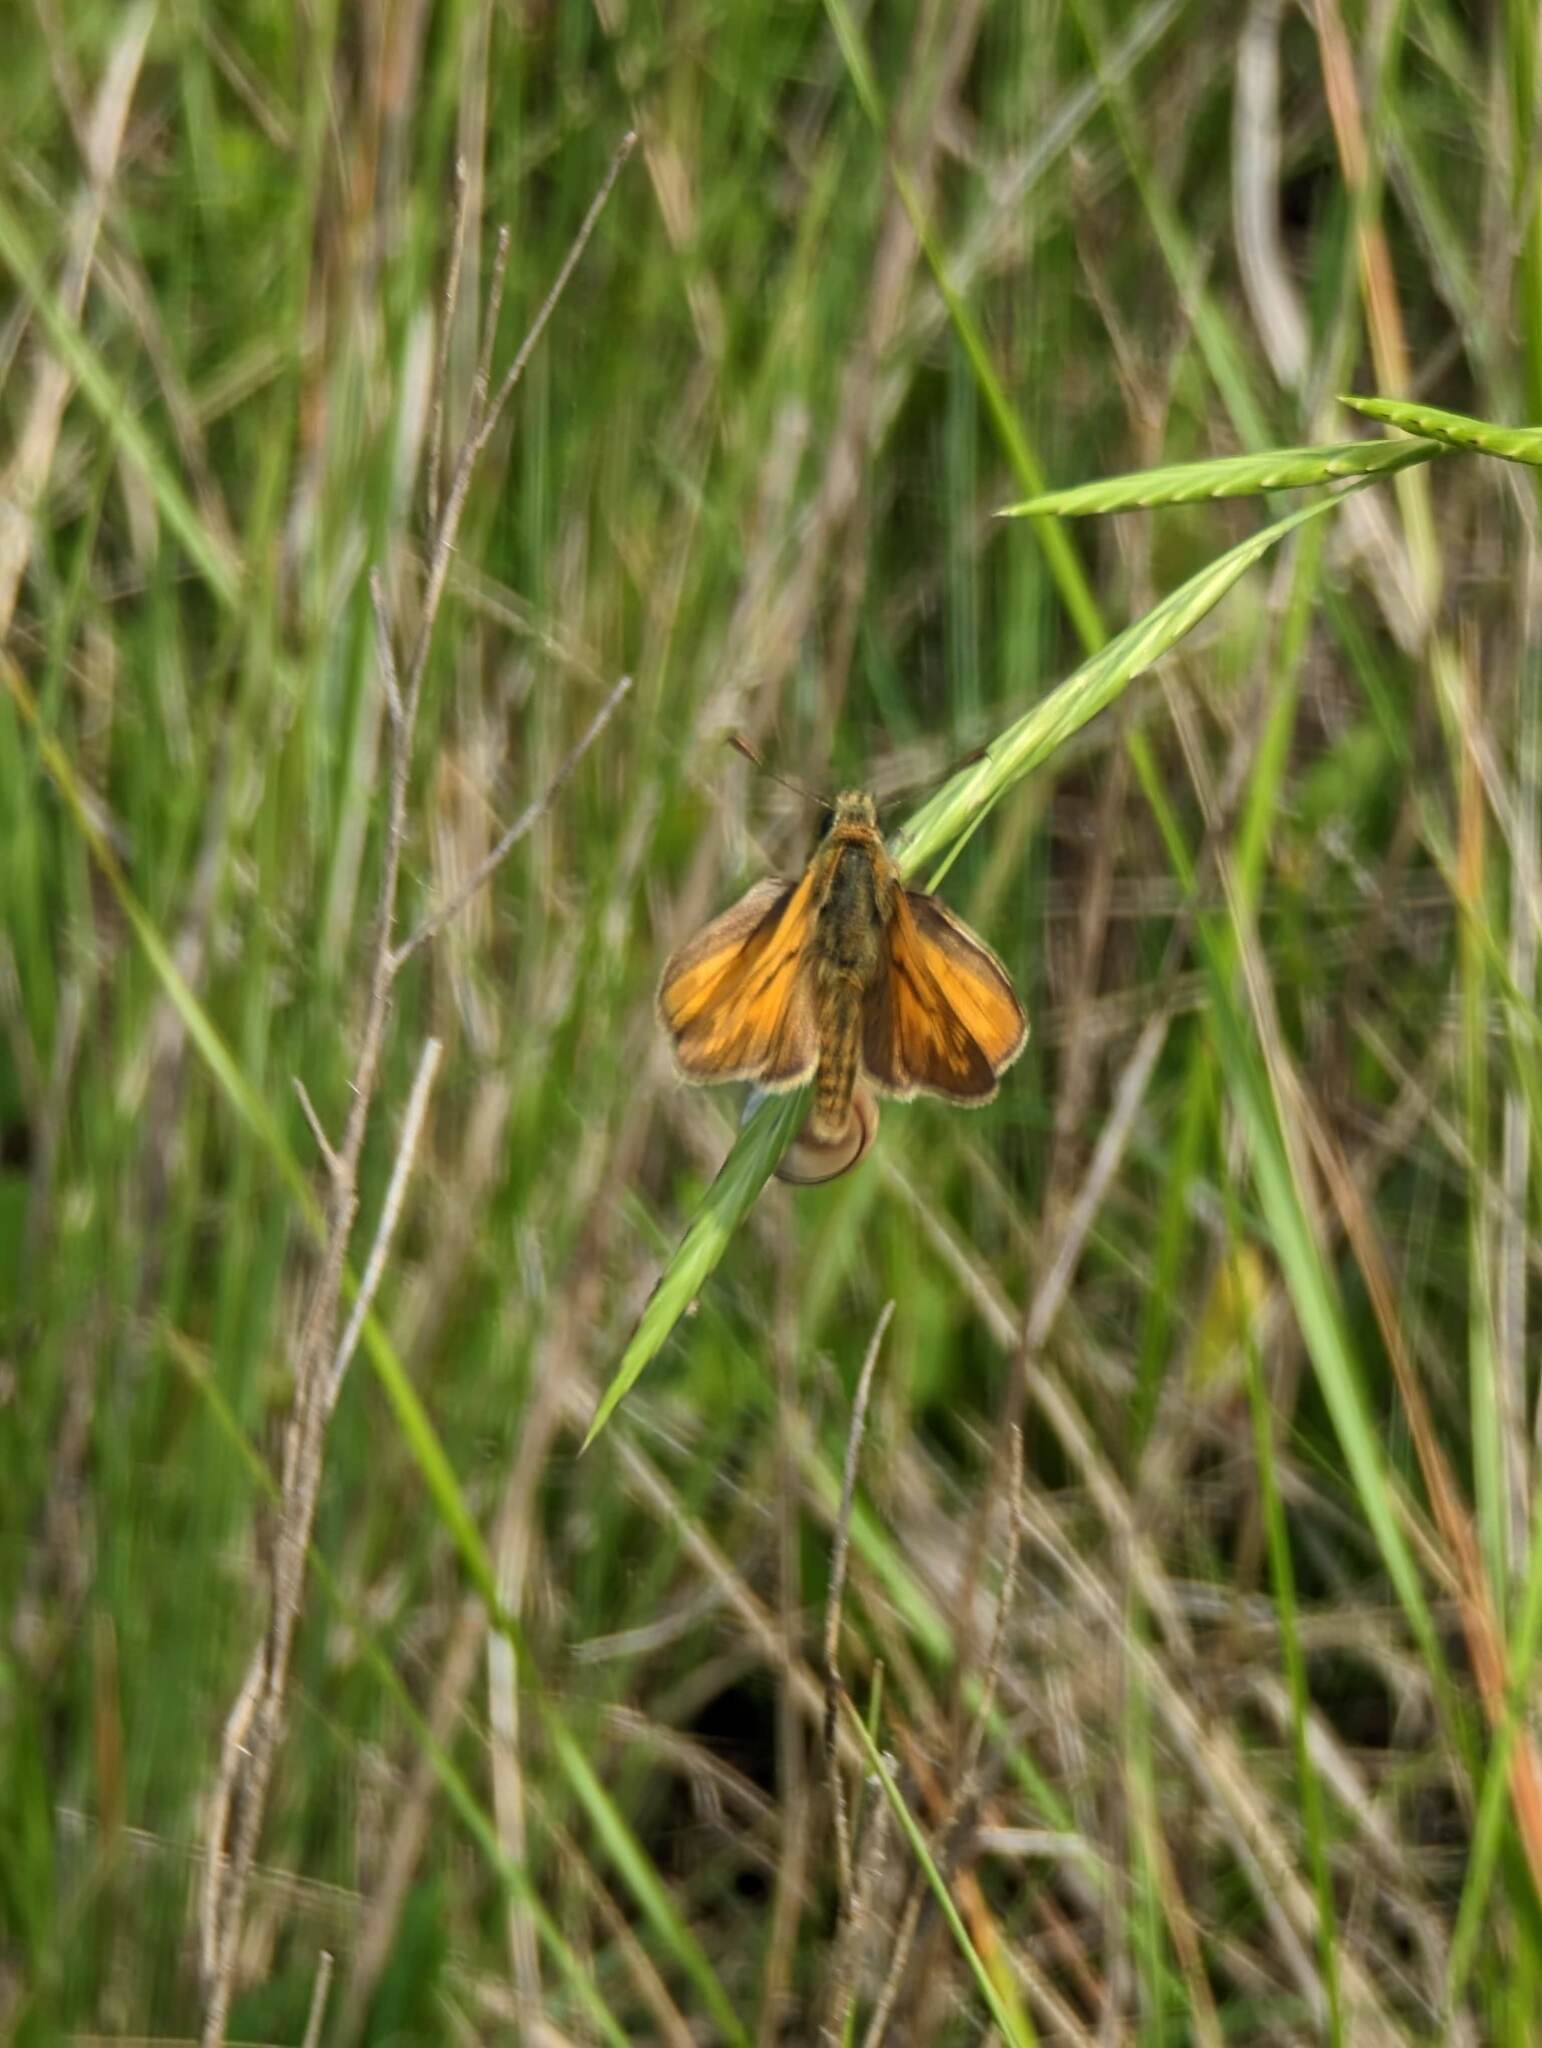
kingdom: Animalia
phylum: Arthropoda
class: Insecta
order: Lepidoptera
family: Hesperiidae
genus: Ochlodes
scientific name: Ochlodes venata
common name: Large skipper
